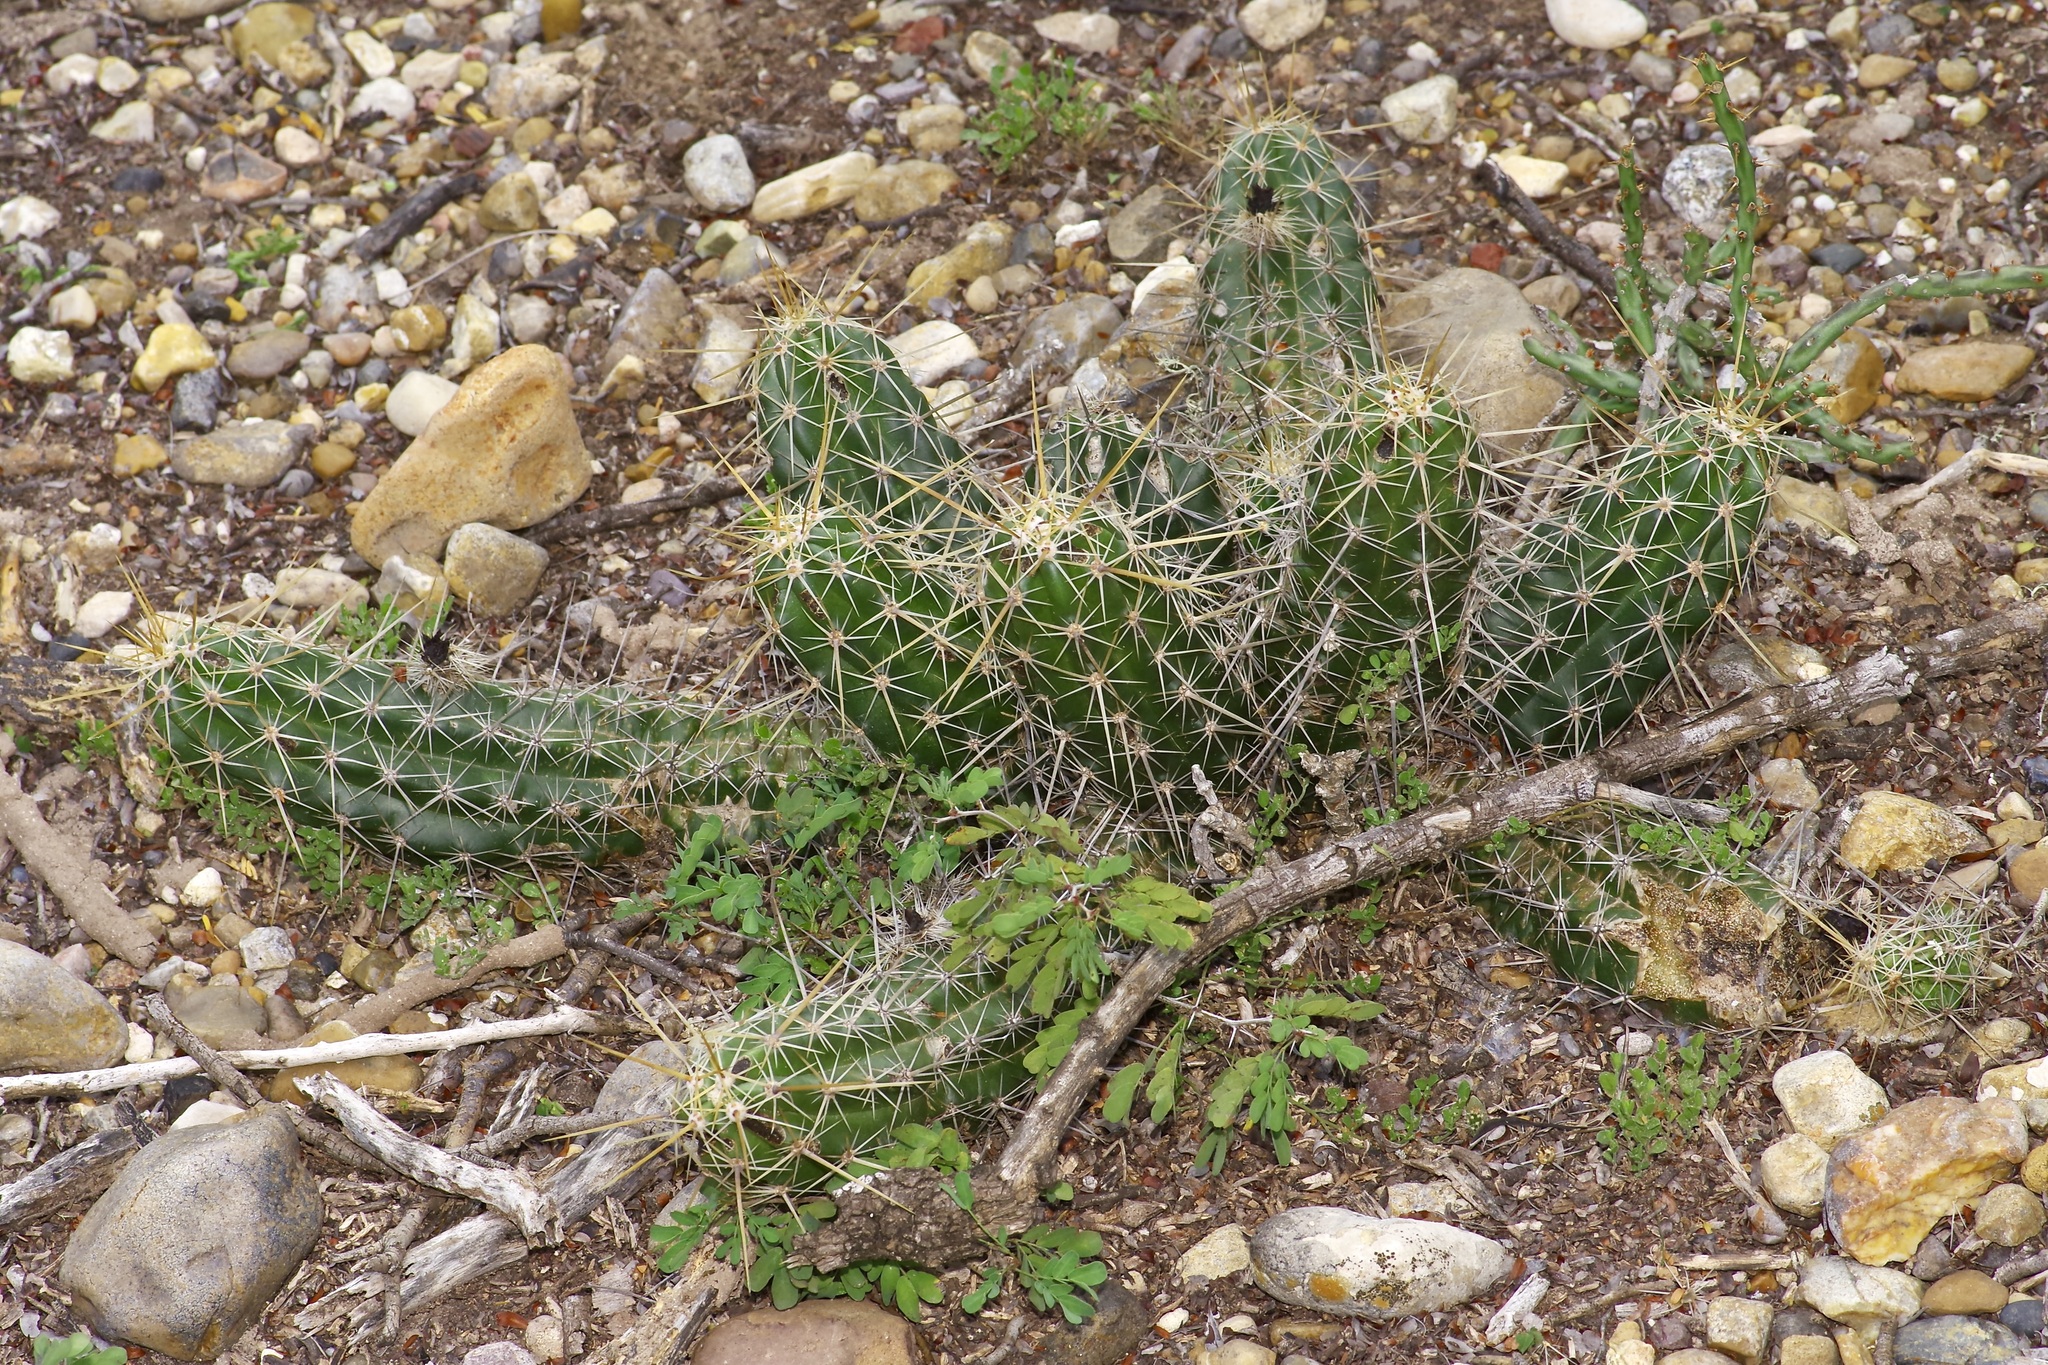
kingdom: Plantae
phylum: Tracheophyta
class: Magnoliopsida
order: Caryophyllales
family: Cactaceae
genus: Echinocereus
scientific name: Echinocereus enneacanthus
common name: Pitaya
